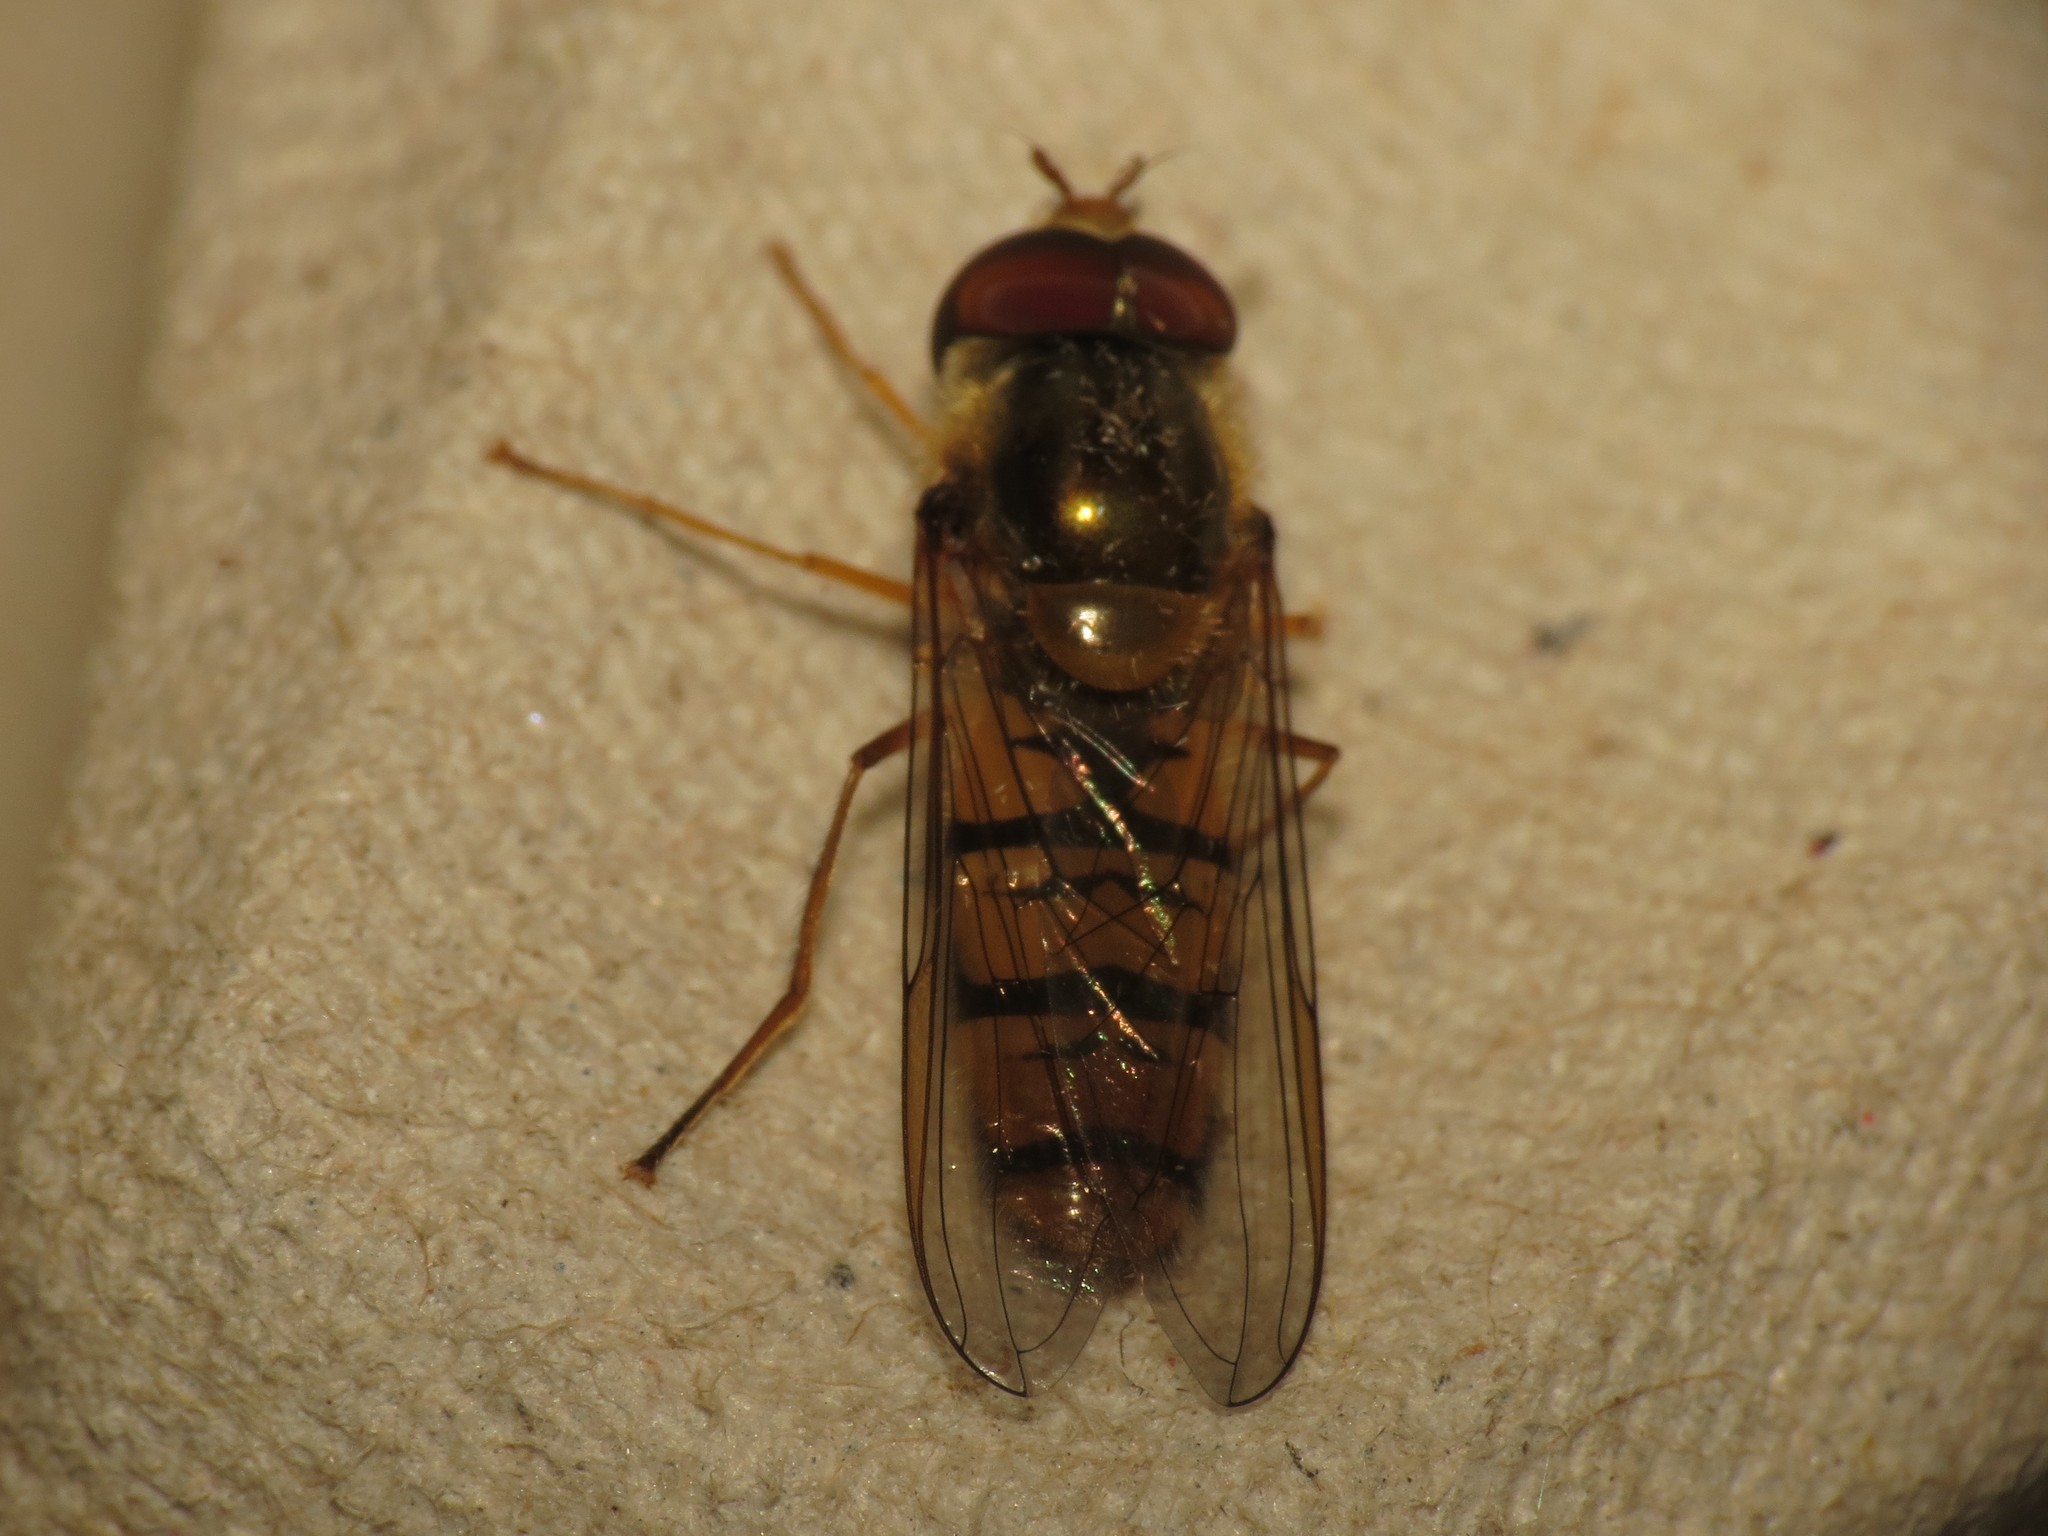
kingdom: Animalia
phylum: Arthropoda
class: Insecta
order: Diptera
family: Syrphidae
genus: Episyrphus
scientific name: Episyrphus balteatus
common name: Marmalade hoverfly
